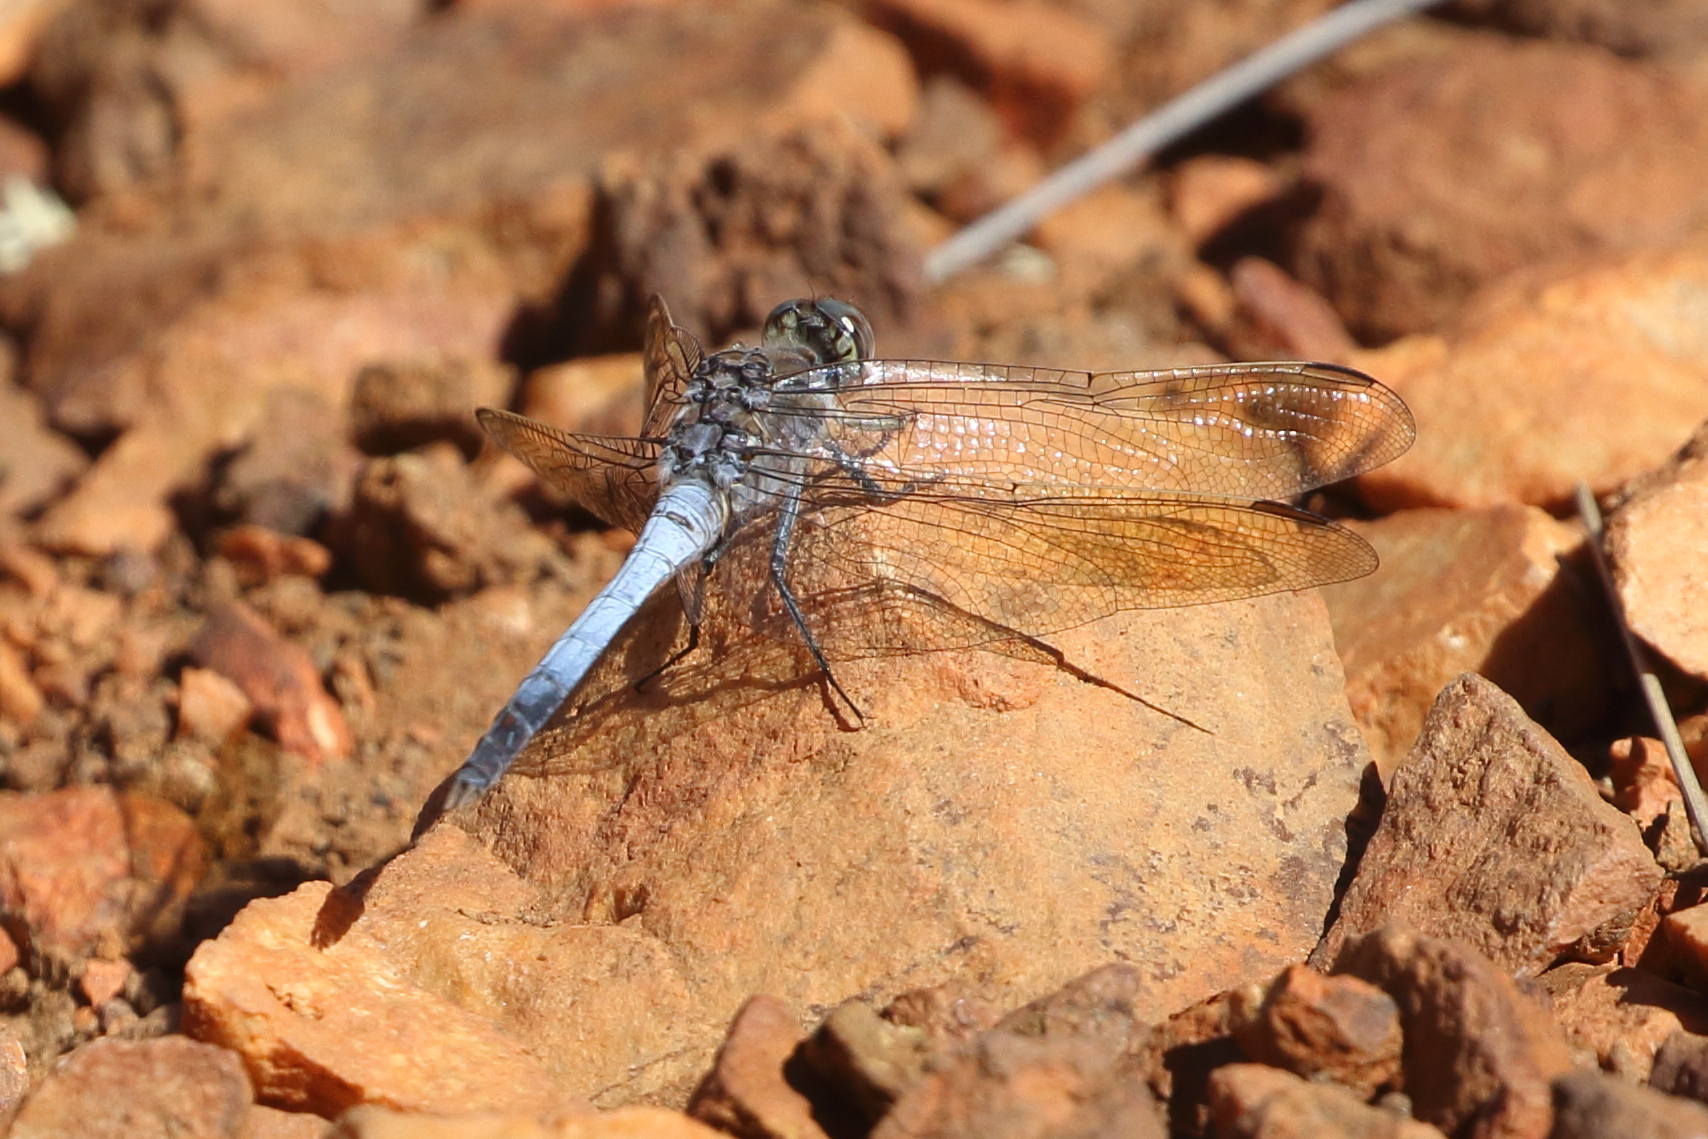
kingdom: Animalia
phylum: Arthropoda
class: Insecta
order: Odonata
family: Libellulidae
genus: Orthetrum
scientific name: Orthetrum caledonicum
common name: Blue skimmer
